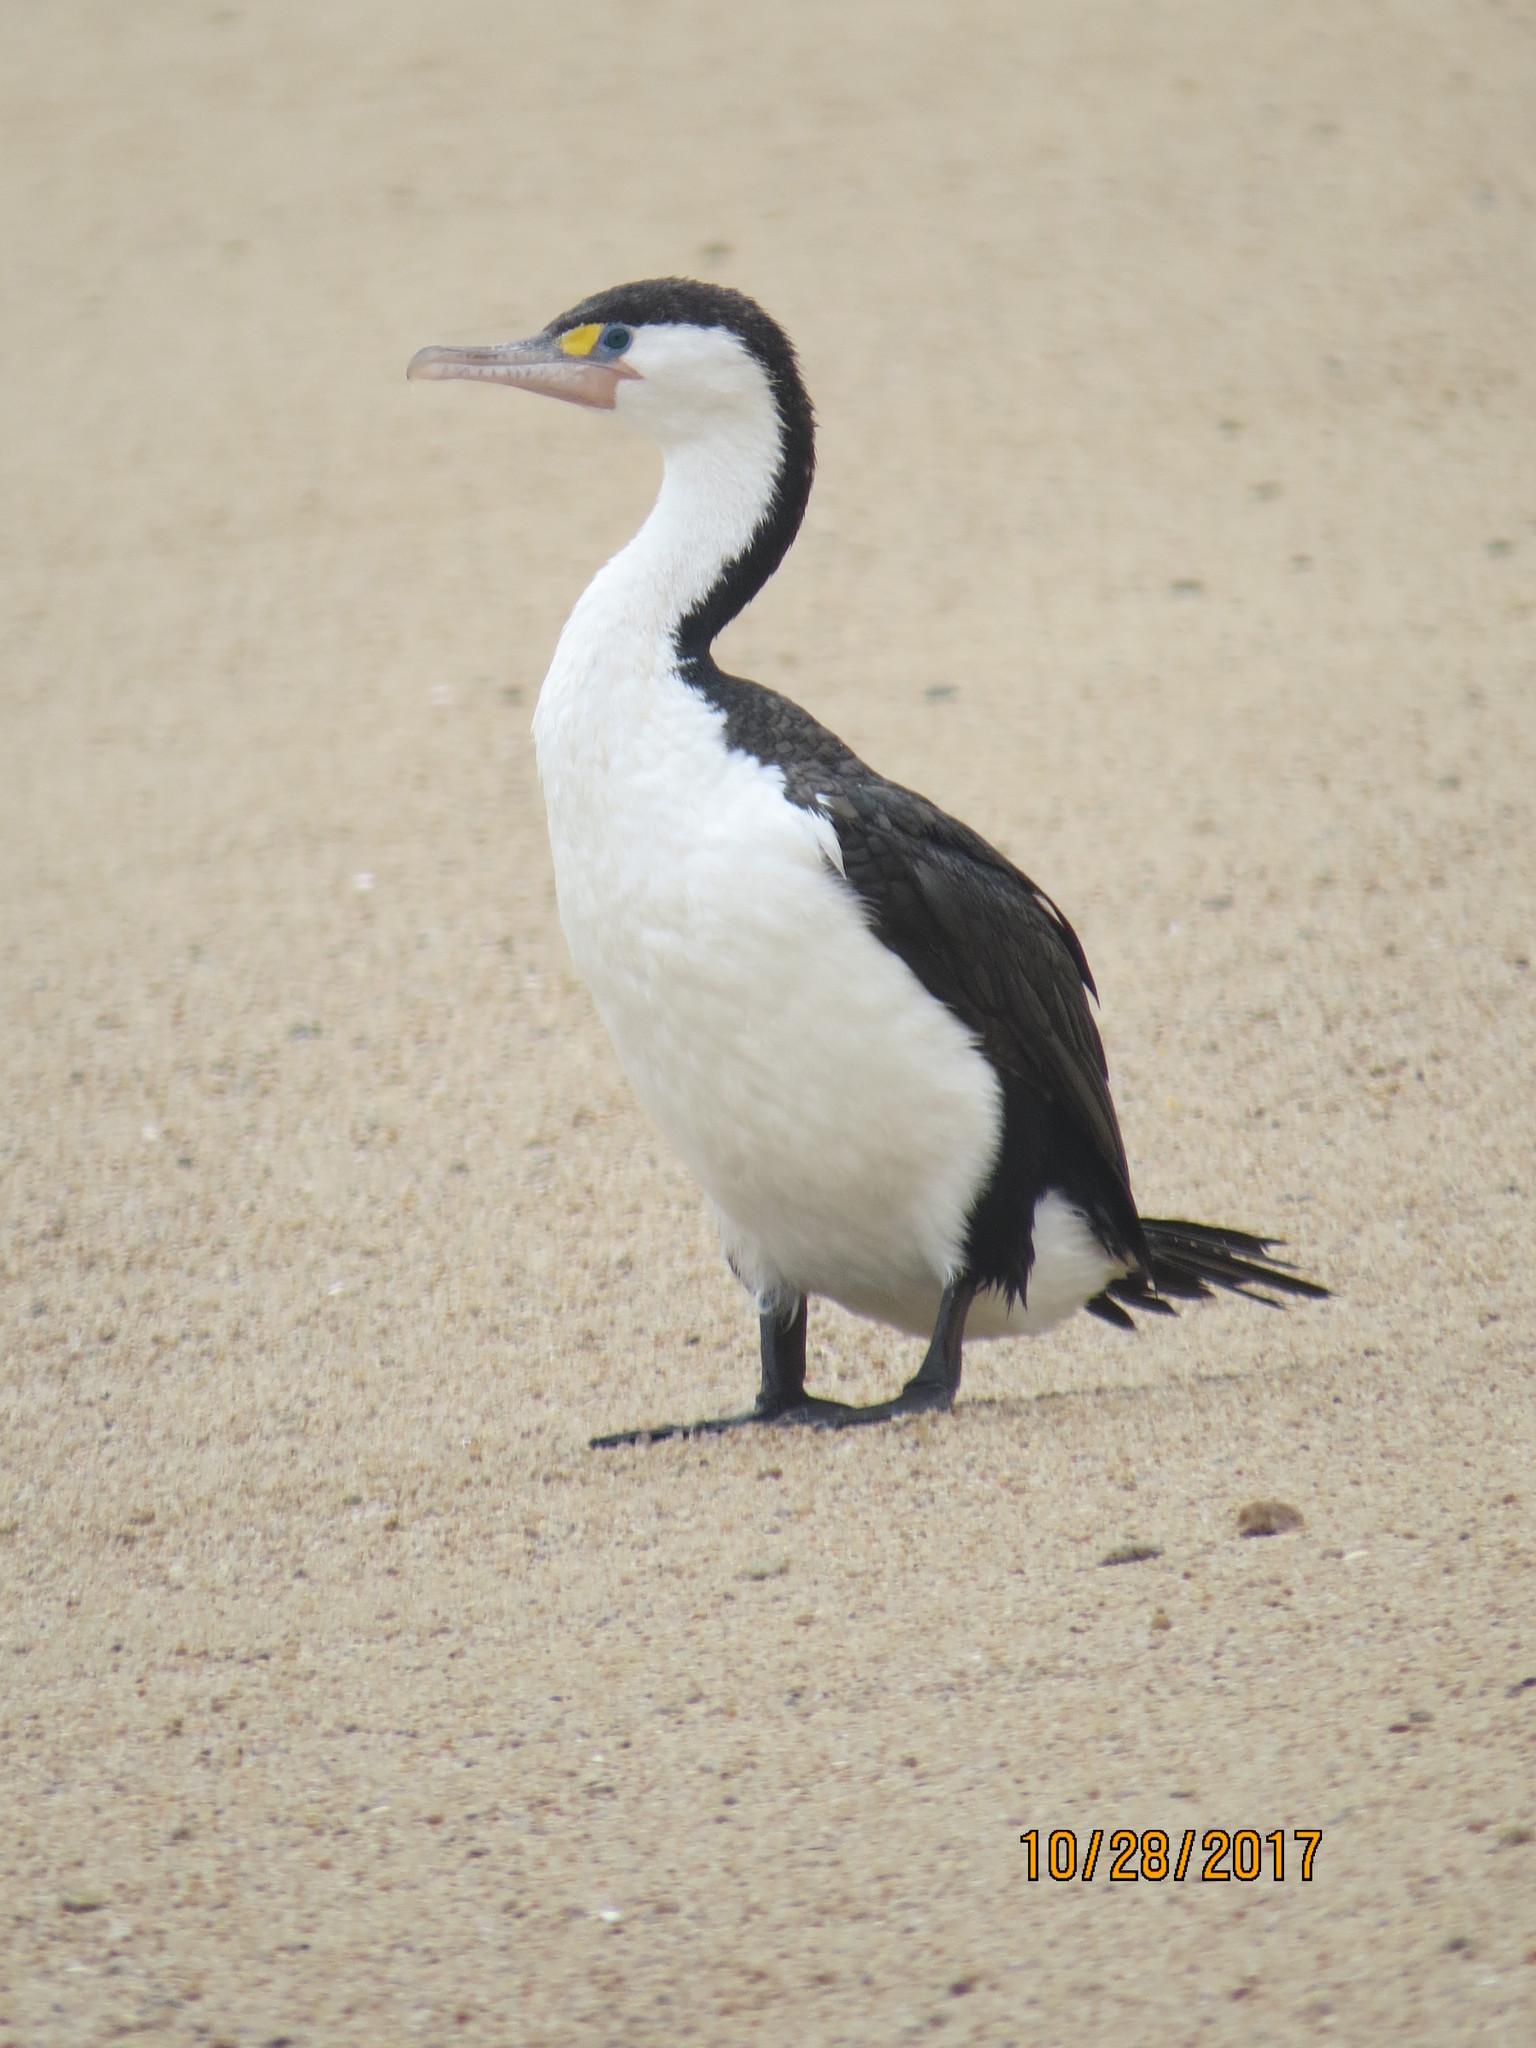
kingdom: Animalia
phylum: Chordata
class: Aves
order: Suliformes
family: Phalacrocoracidae
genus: Phalacrocorax
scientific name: Phalacrocorax varius
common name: Pied cormorant
